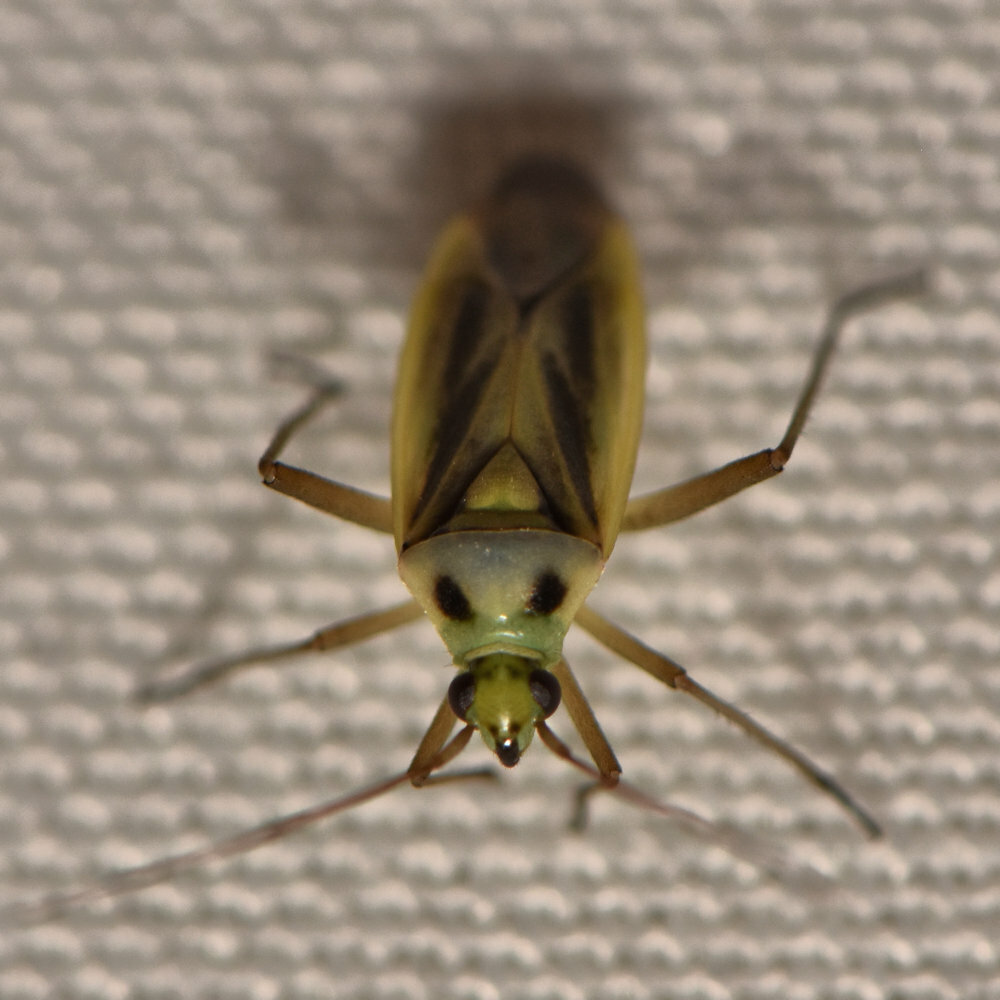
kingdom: Animalia
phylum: Arthropoda
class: Insecta
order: Hemiptera
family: Miridae
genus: Stenotus
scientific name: Stenotus binotatus
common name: Plant bug
